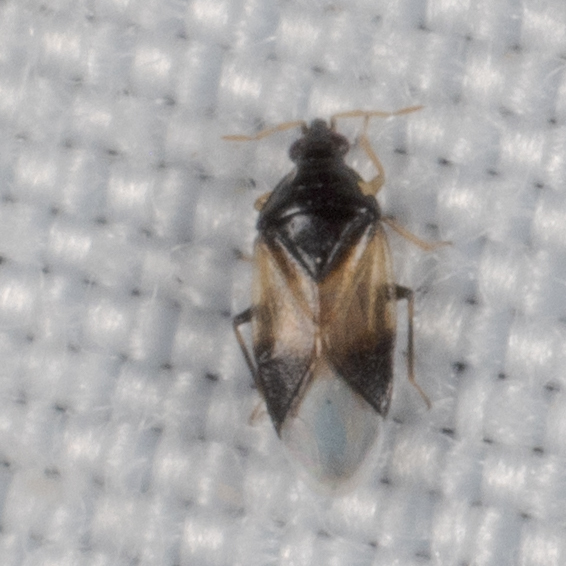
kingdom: Animalia
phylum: Arthropoda
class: Insecta
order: Hemiptera
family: Anthocoridae
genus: Orius
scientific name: Orius insidiosus
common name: Insidious flower bug
